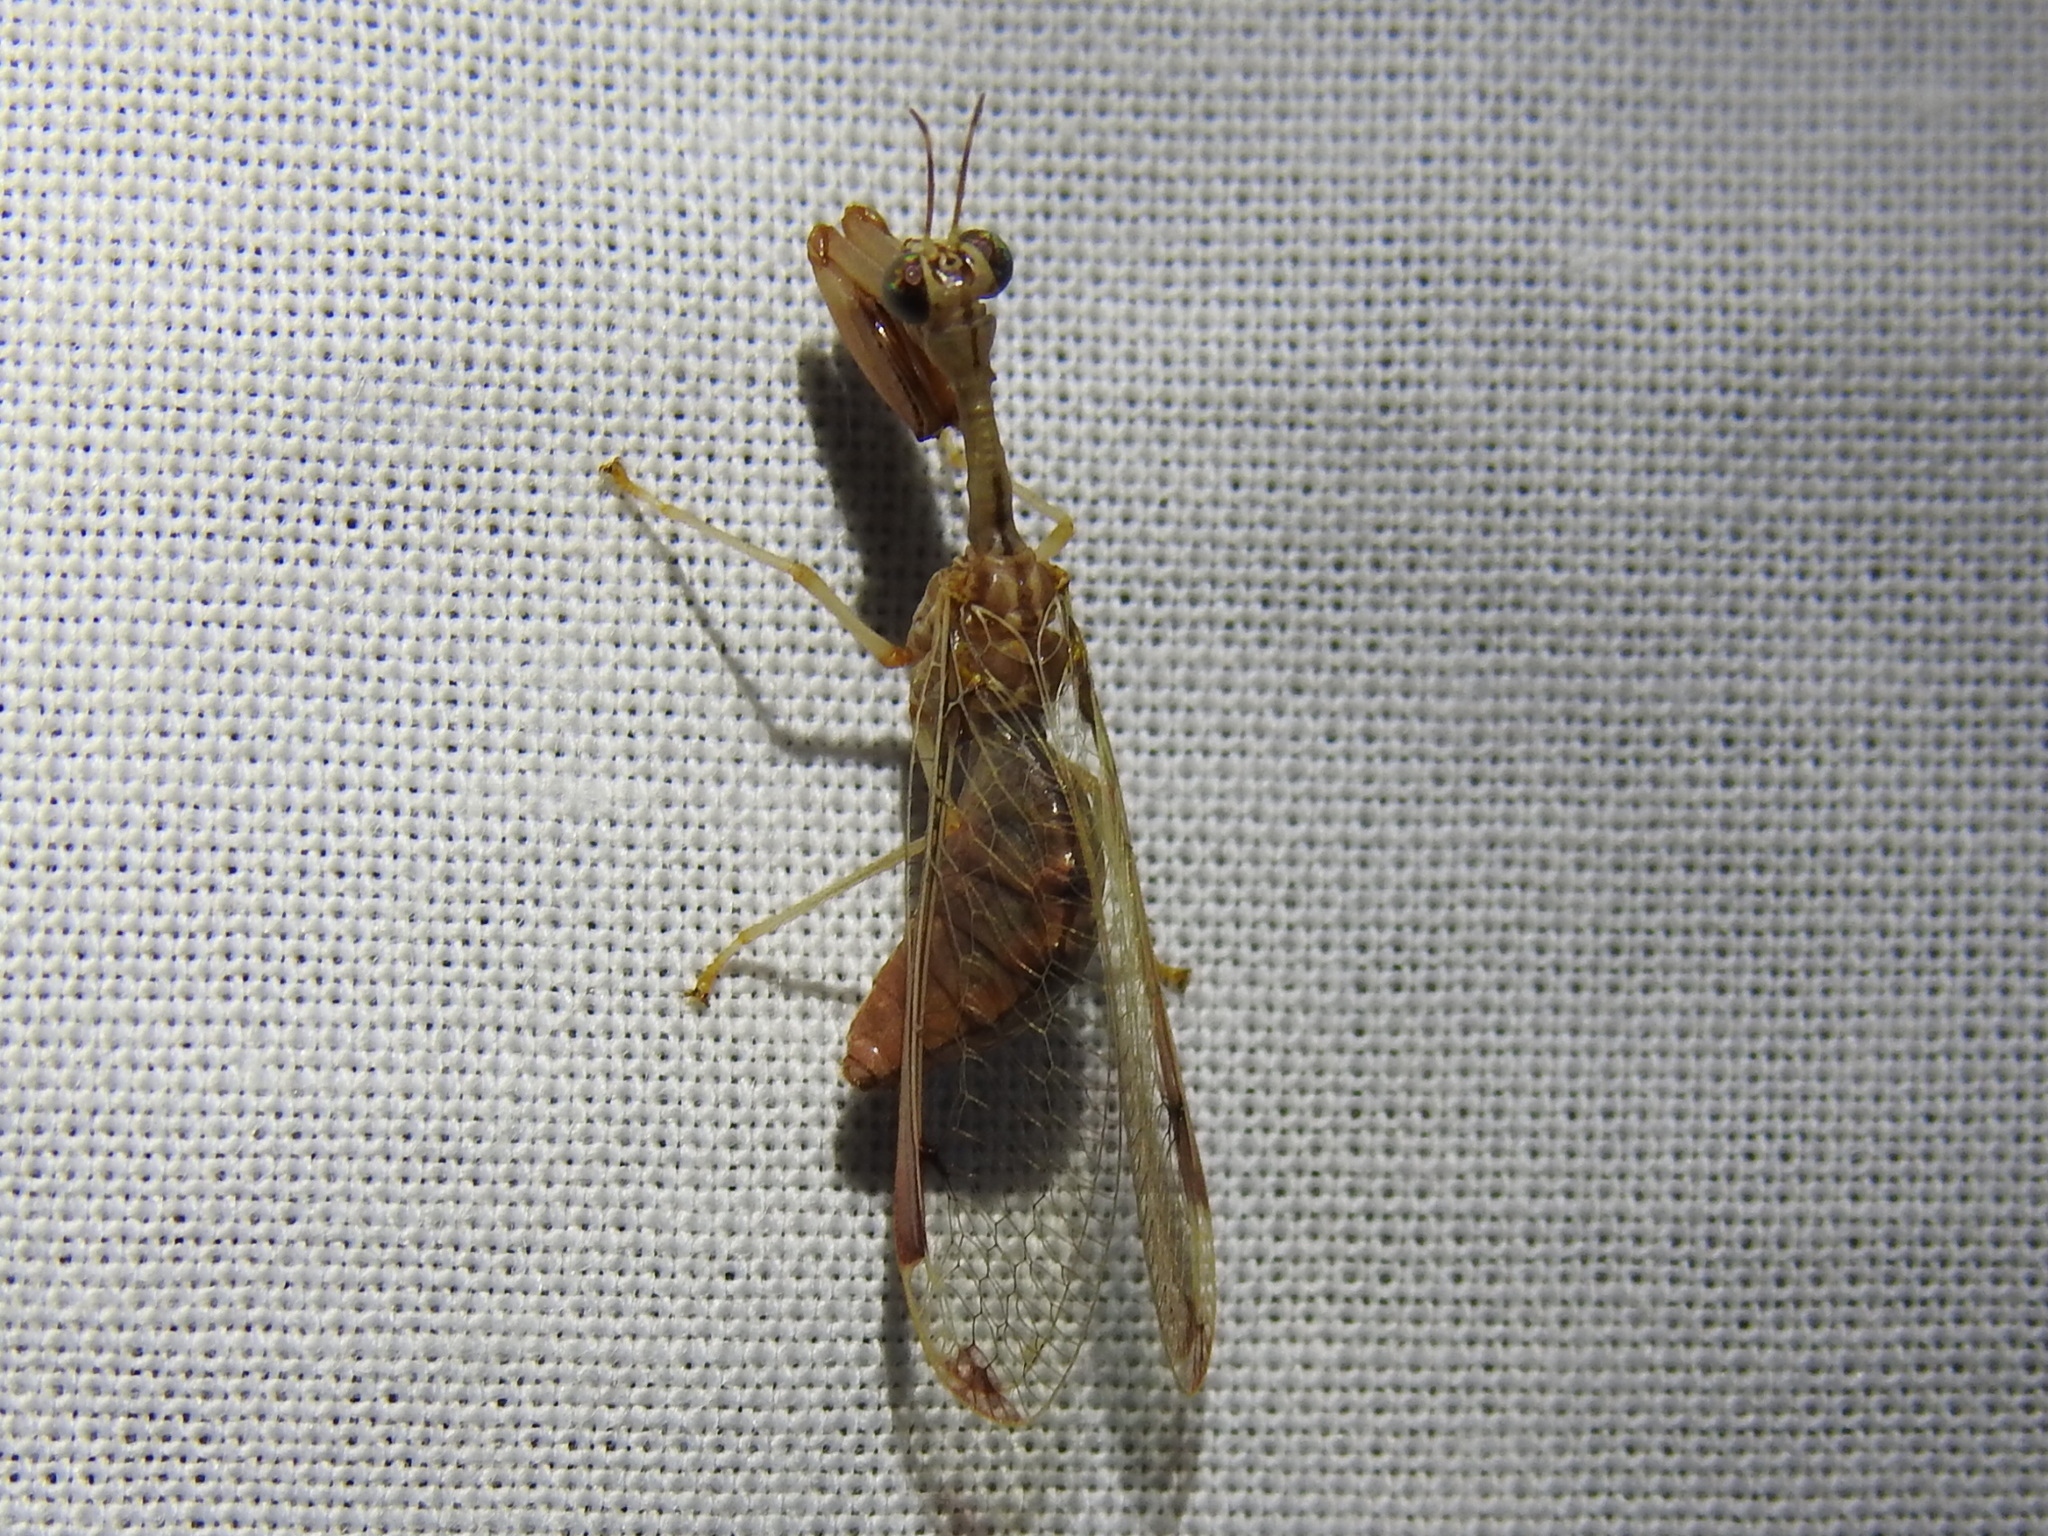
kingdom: Animalia
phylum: Arthropoda
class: Insecta
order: Neuroptera
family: Mantispidae
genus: Dicromantispa
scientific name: Dicromantispa interrupta
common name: Four-spotted mantidfly
